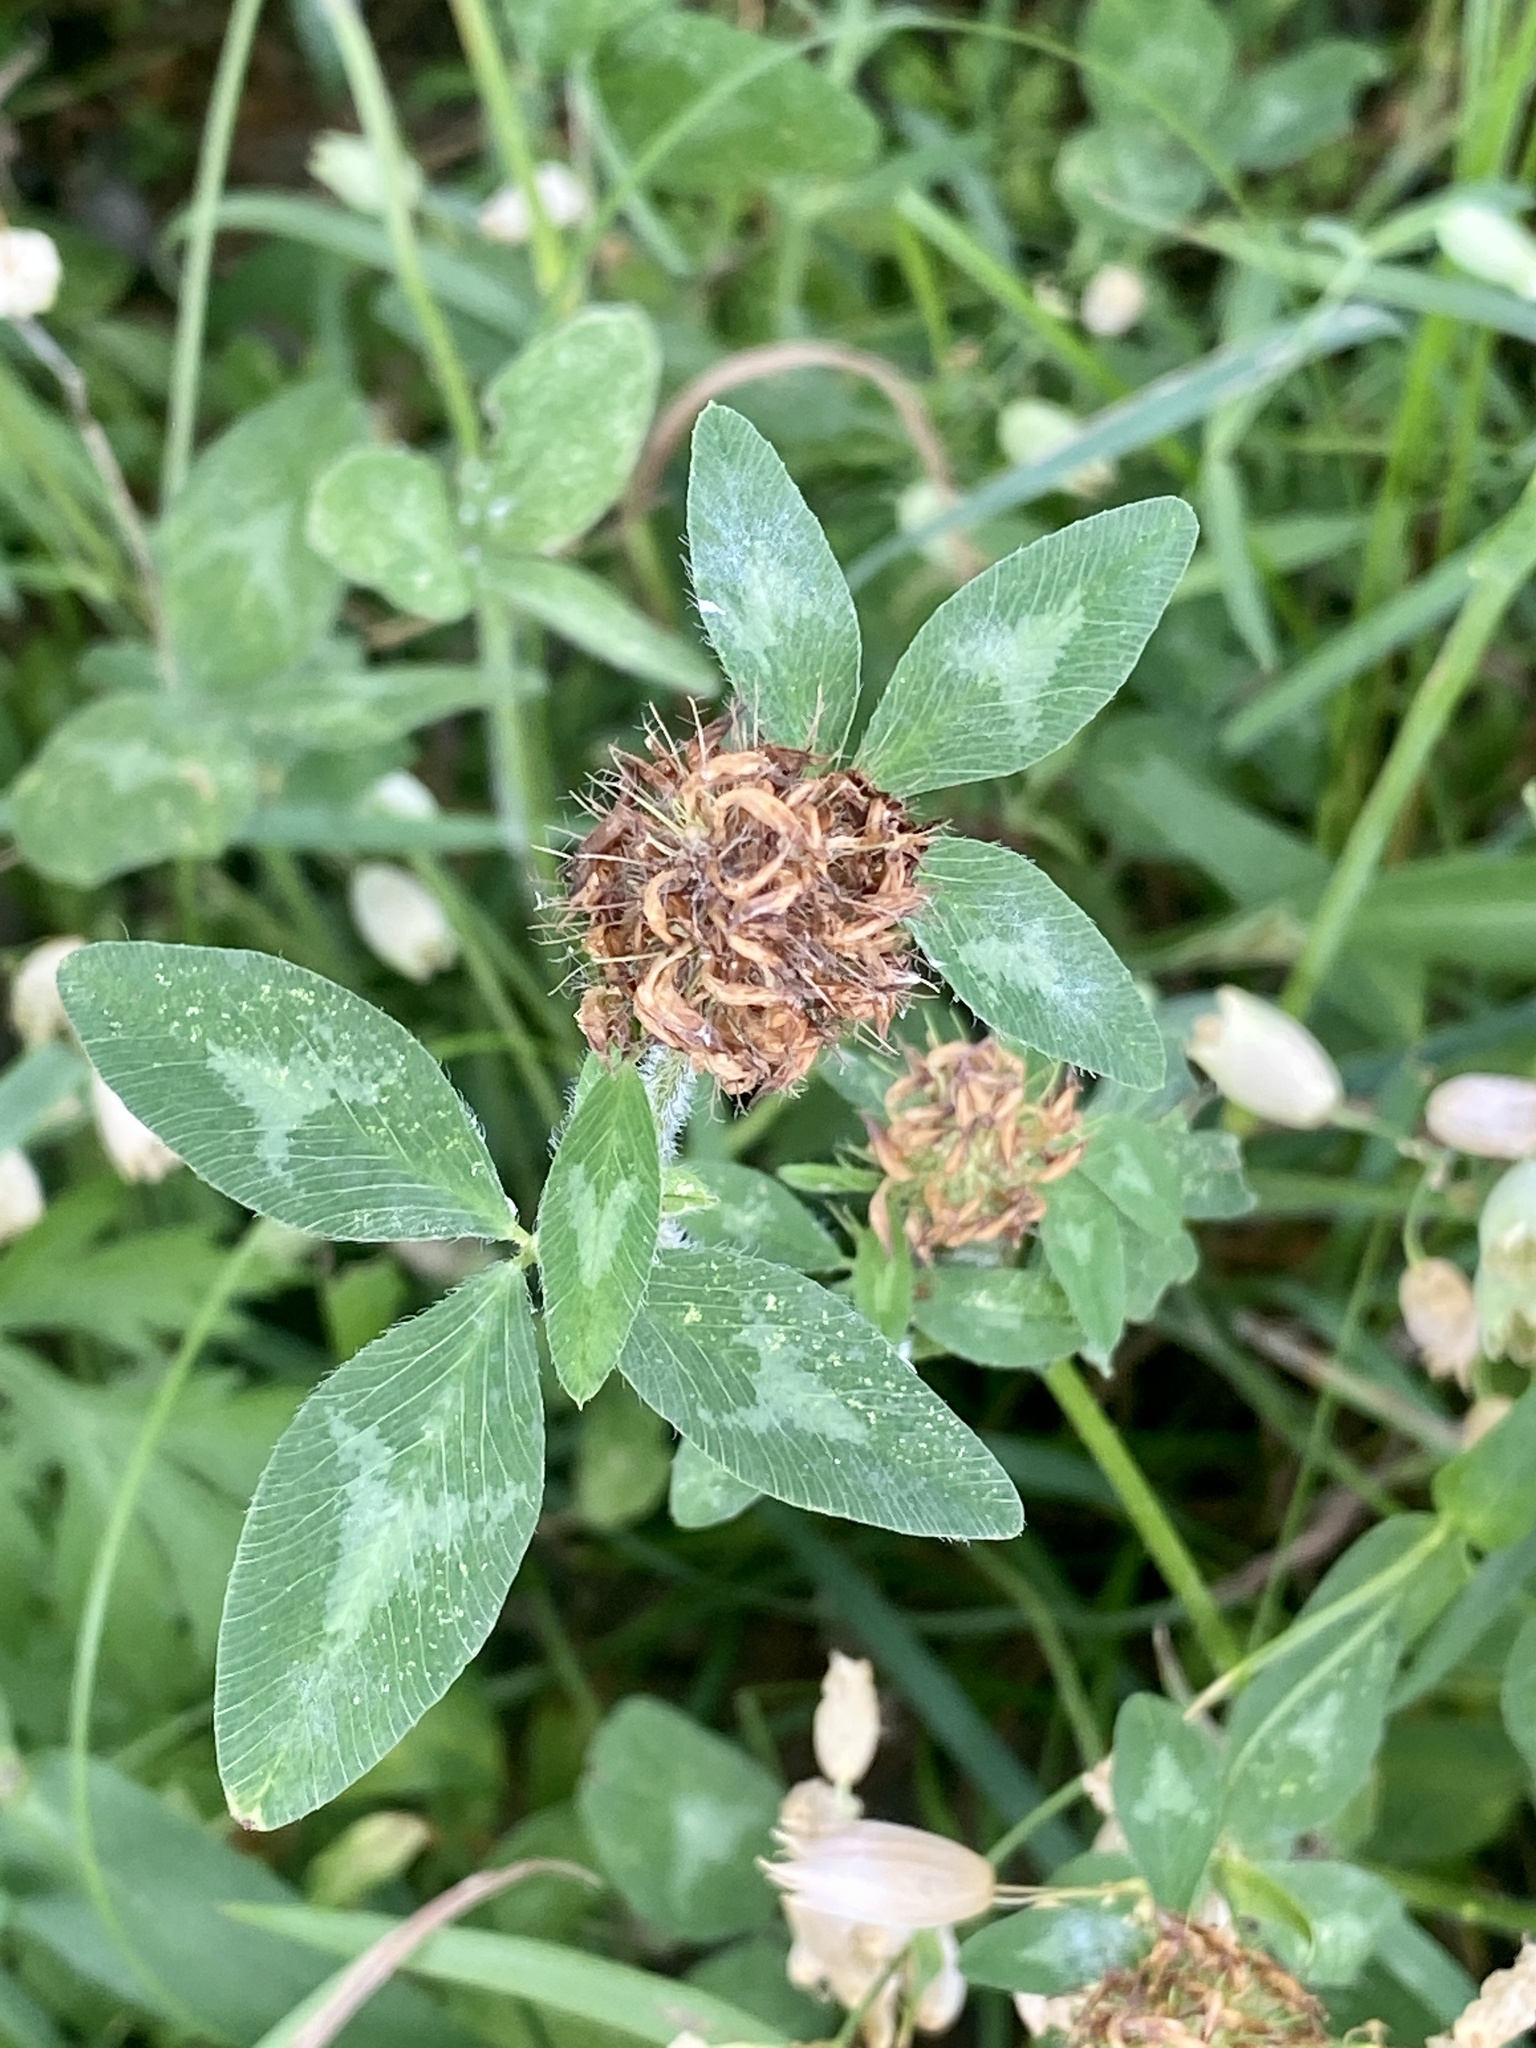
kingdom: Plantae
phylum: Tracheophyta
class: Magnoliopsida
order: Fabales
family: Fabaceae
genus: Trifolium
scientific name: Trifolium pratense
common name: Red clover
